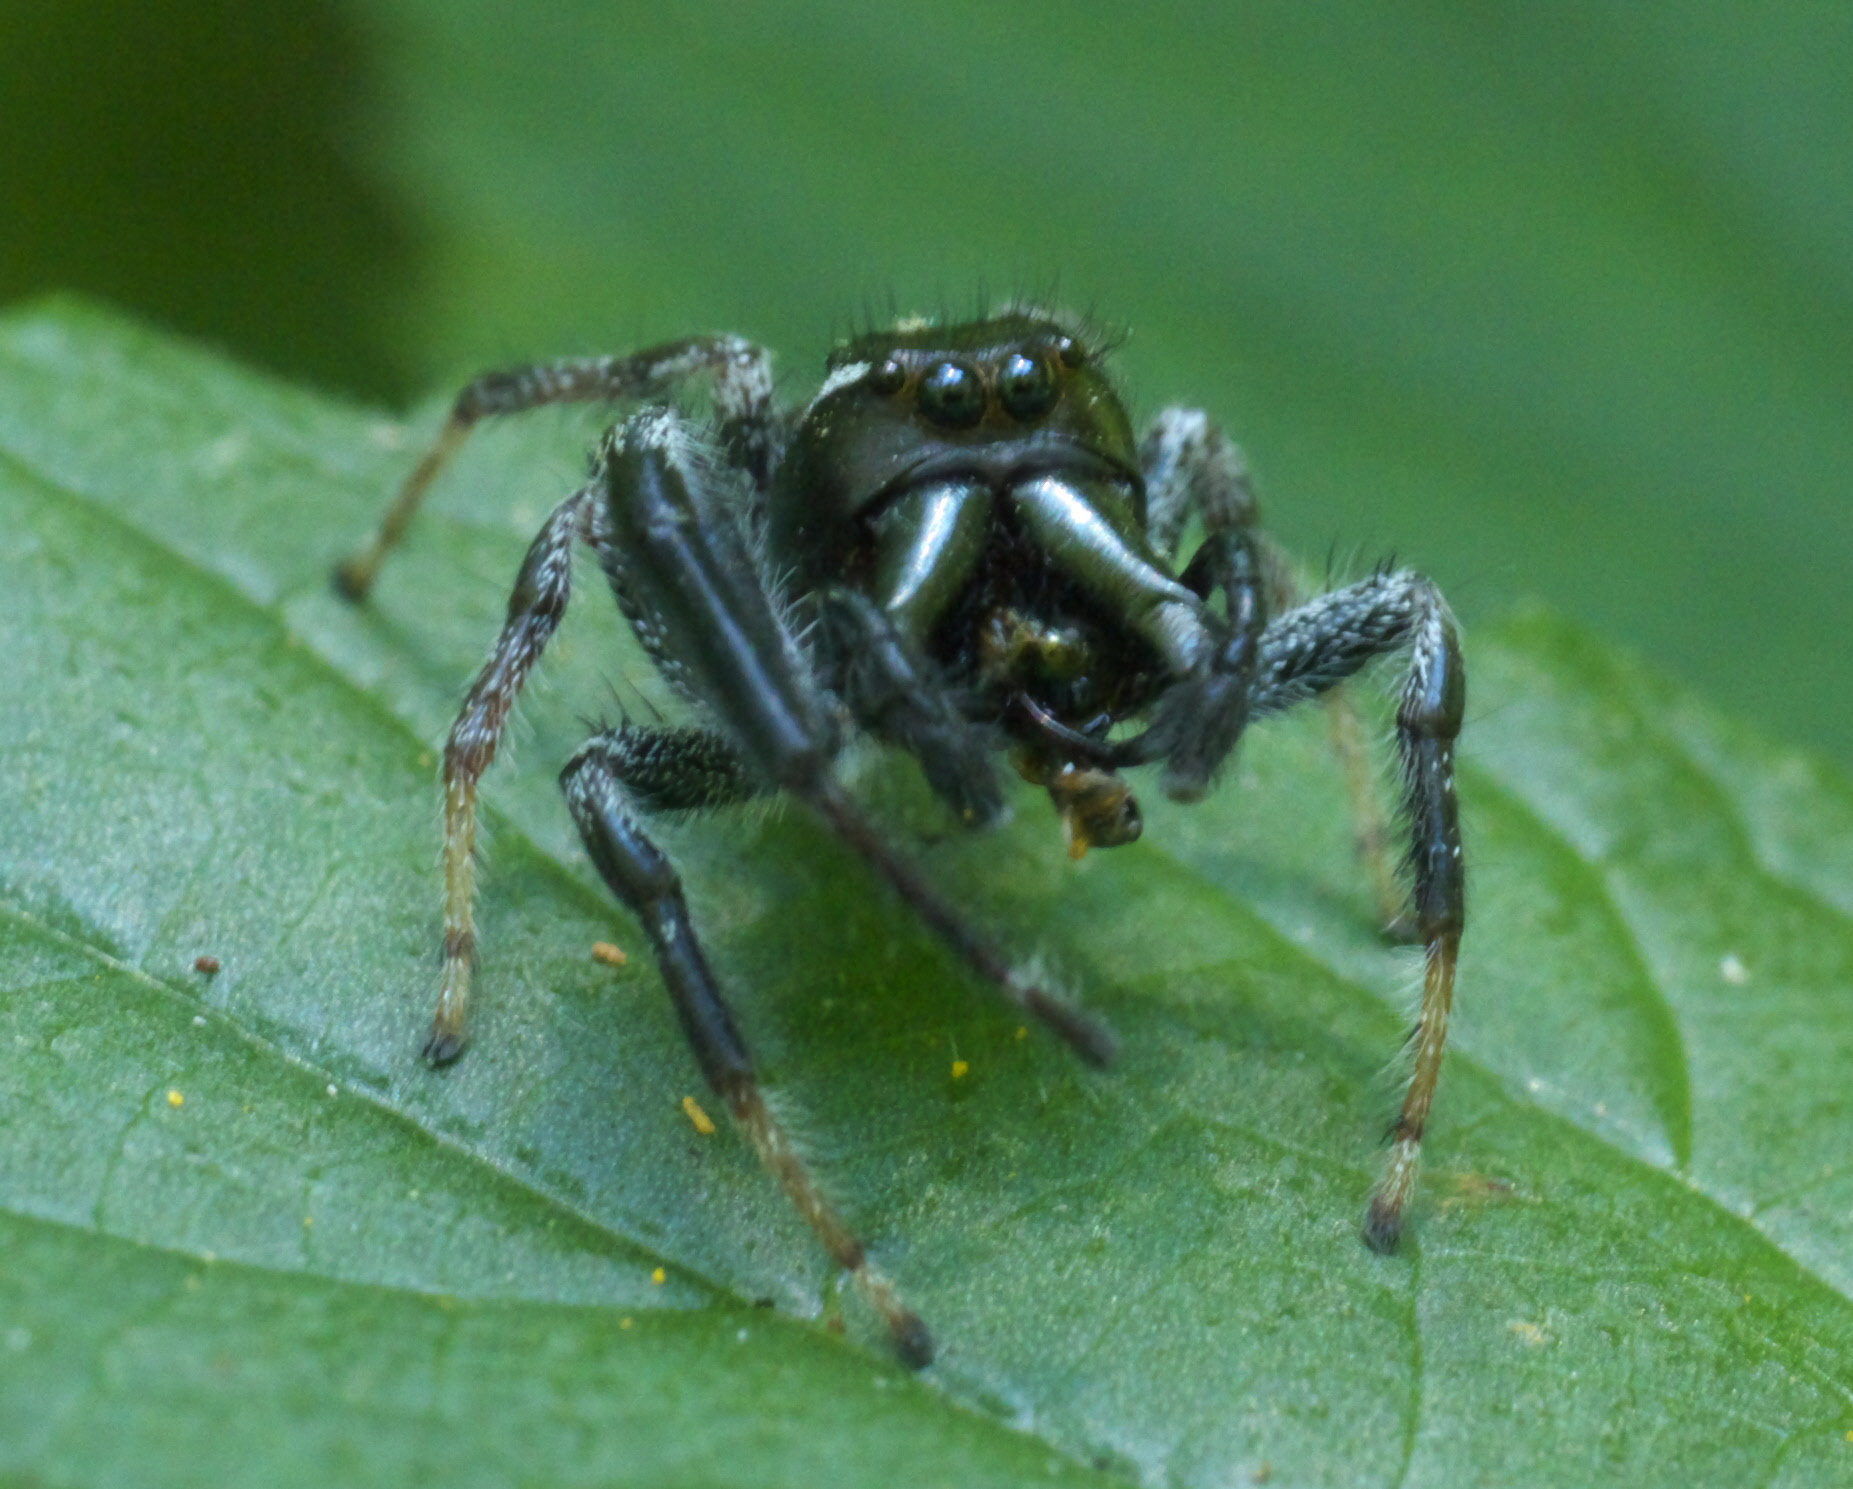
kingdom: Animalia
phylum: Arthropoda
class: Arachnida
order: Araneae
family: Salticidae
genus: Paraphidippus
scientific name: Paraphidippus aurantius
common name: Jumping spiders
